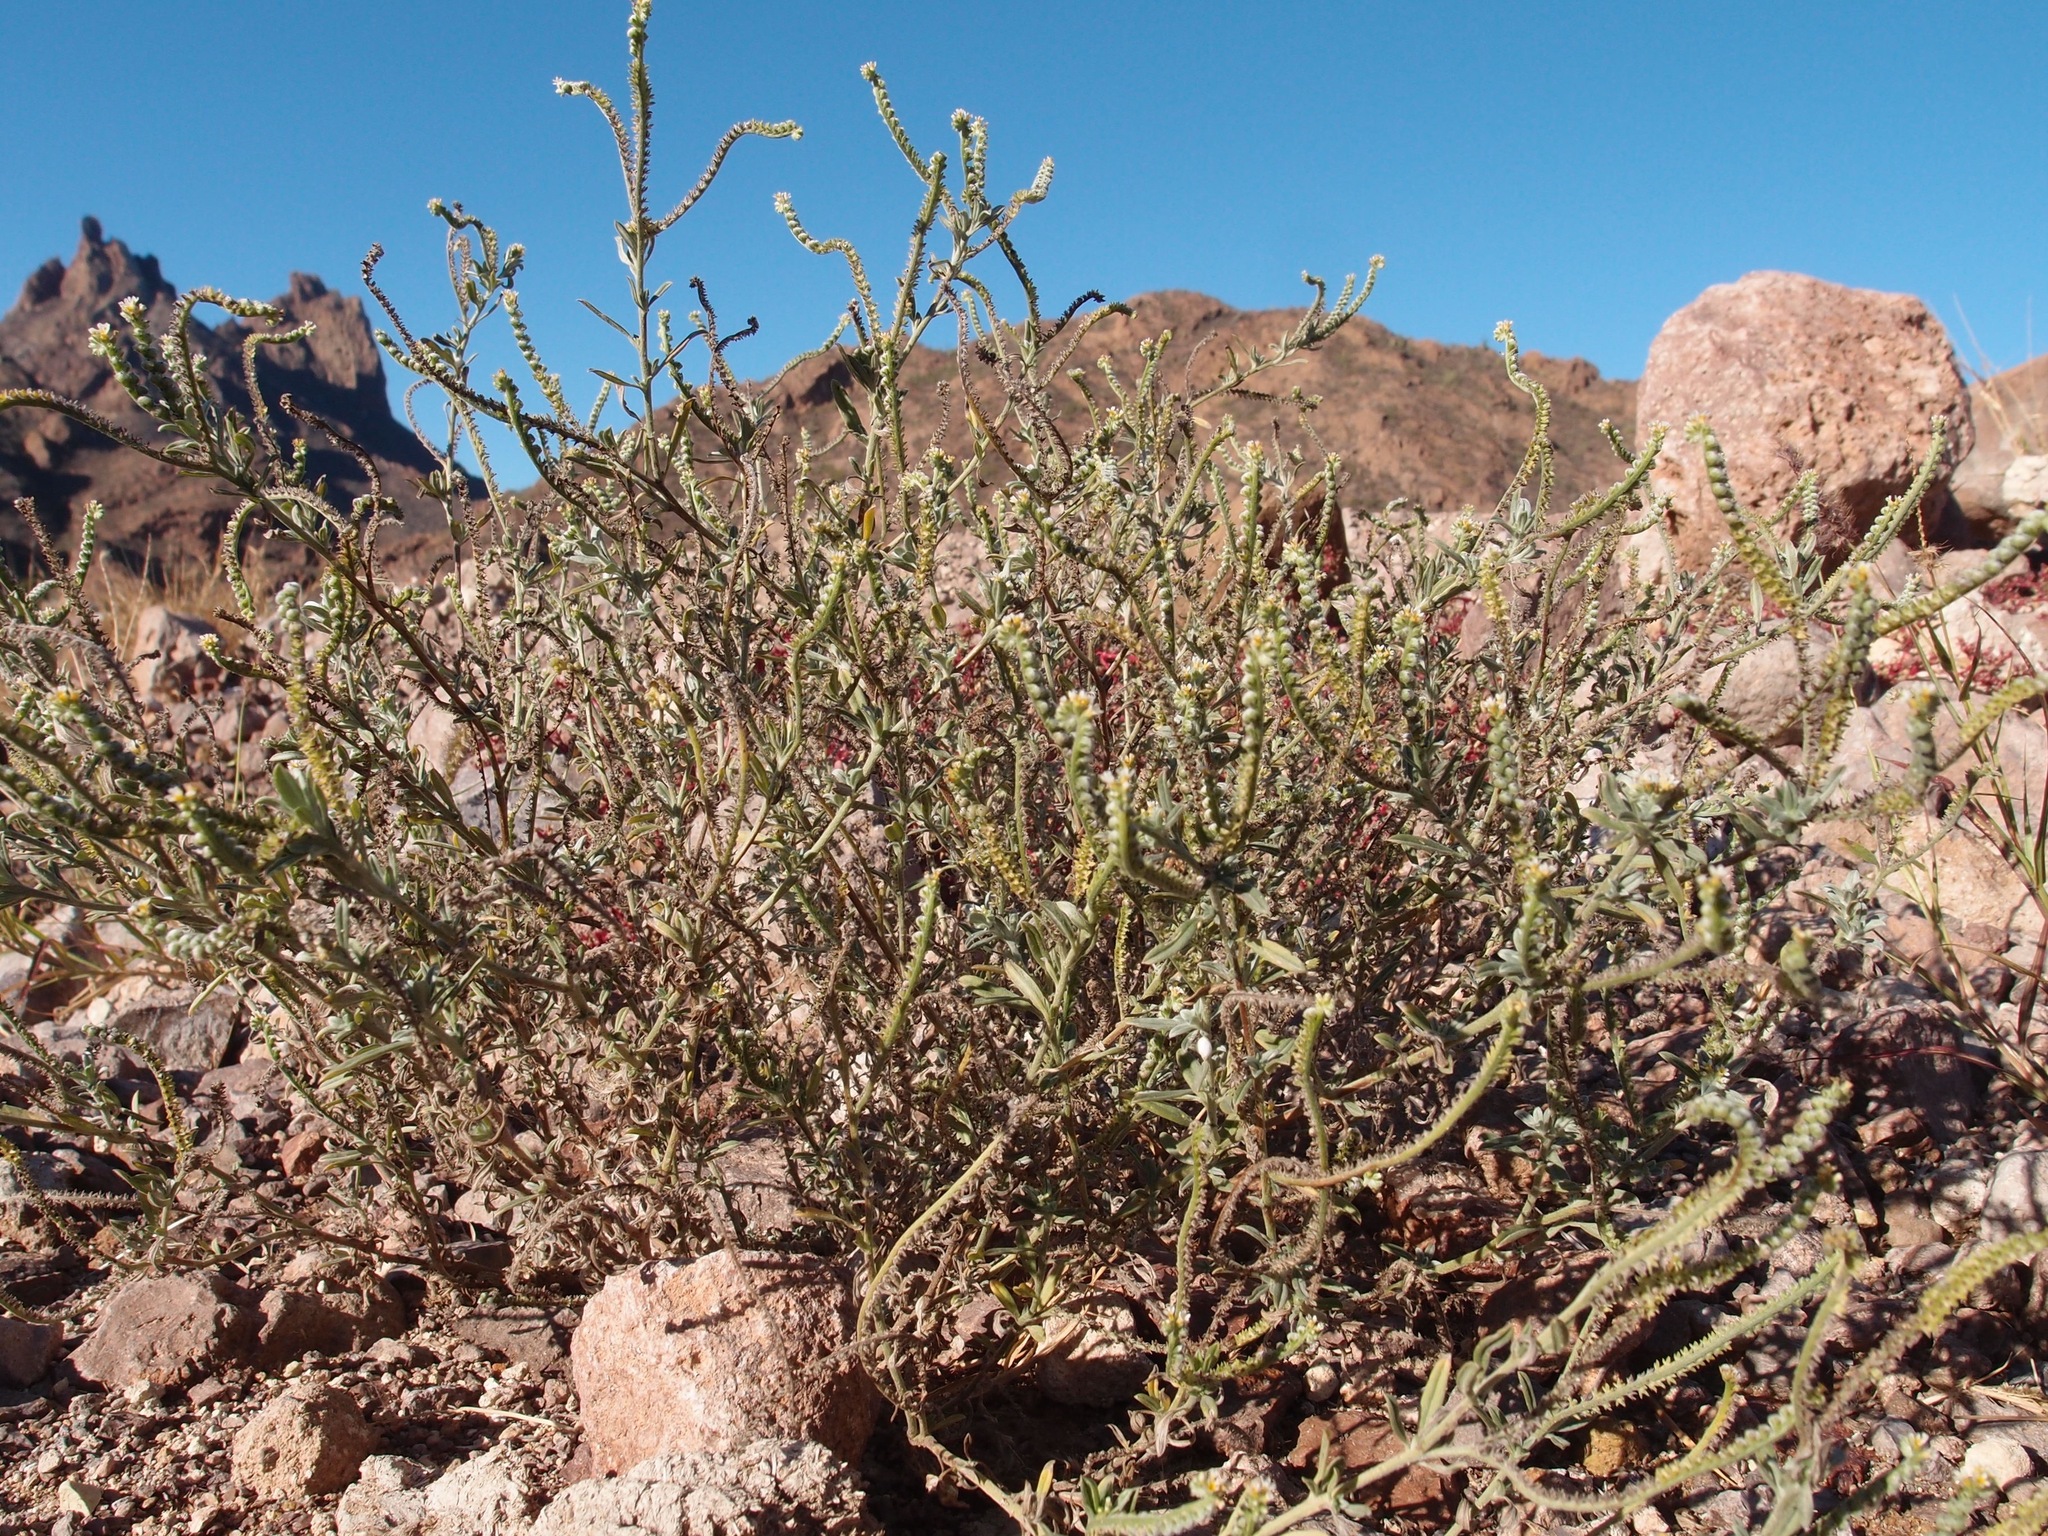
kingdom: Plantae
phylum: Tracheophyta
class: Magnoliopsida
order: Boraginales
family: Heliotropiaceae
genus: Euploca
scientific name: Euploca procumbens
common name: Fourspike heliotrope
